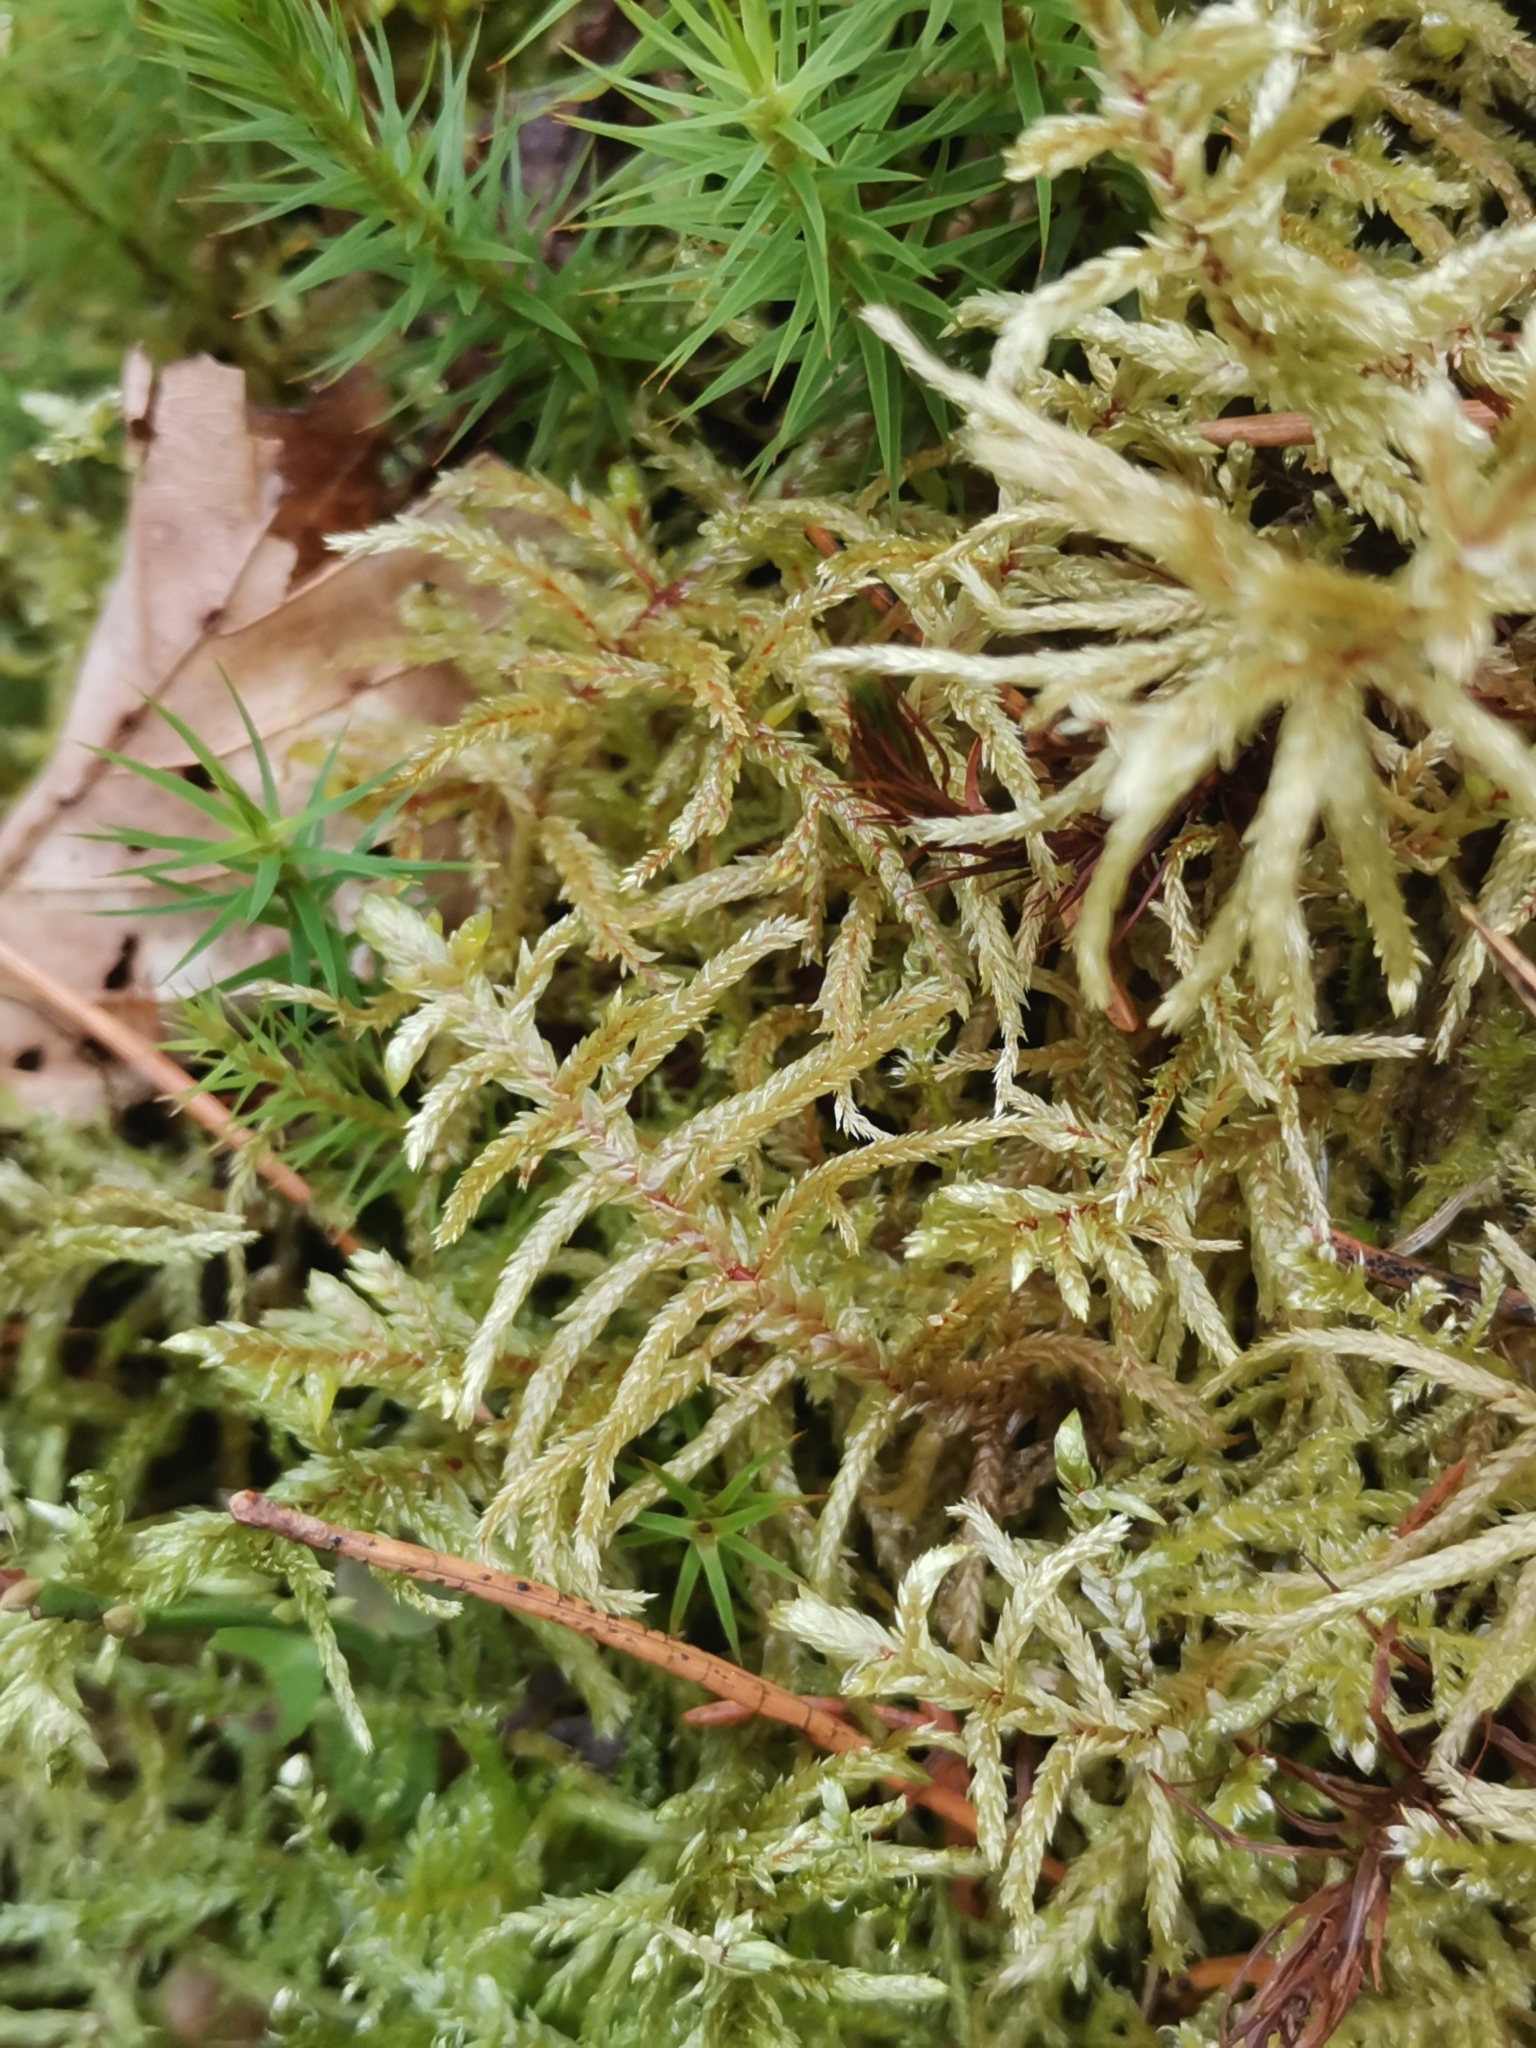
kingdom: Plantae
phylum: Bryophyta
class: Bryopsida
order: Hypnales
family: Hylocomiaceae
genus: Pleurozium
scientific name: Pleurozium schreberi
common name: Red-stemmed feather moss
